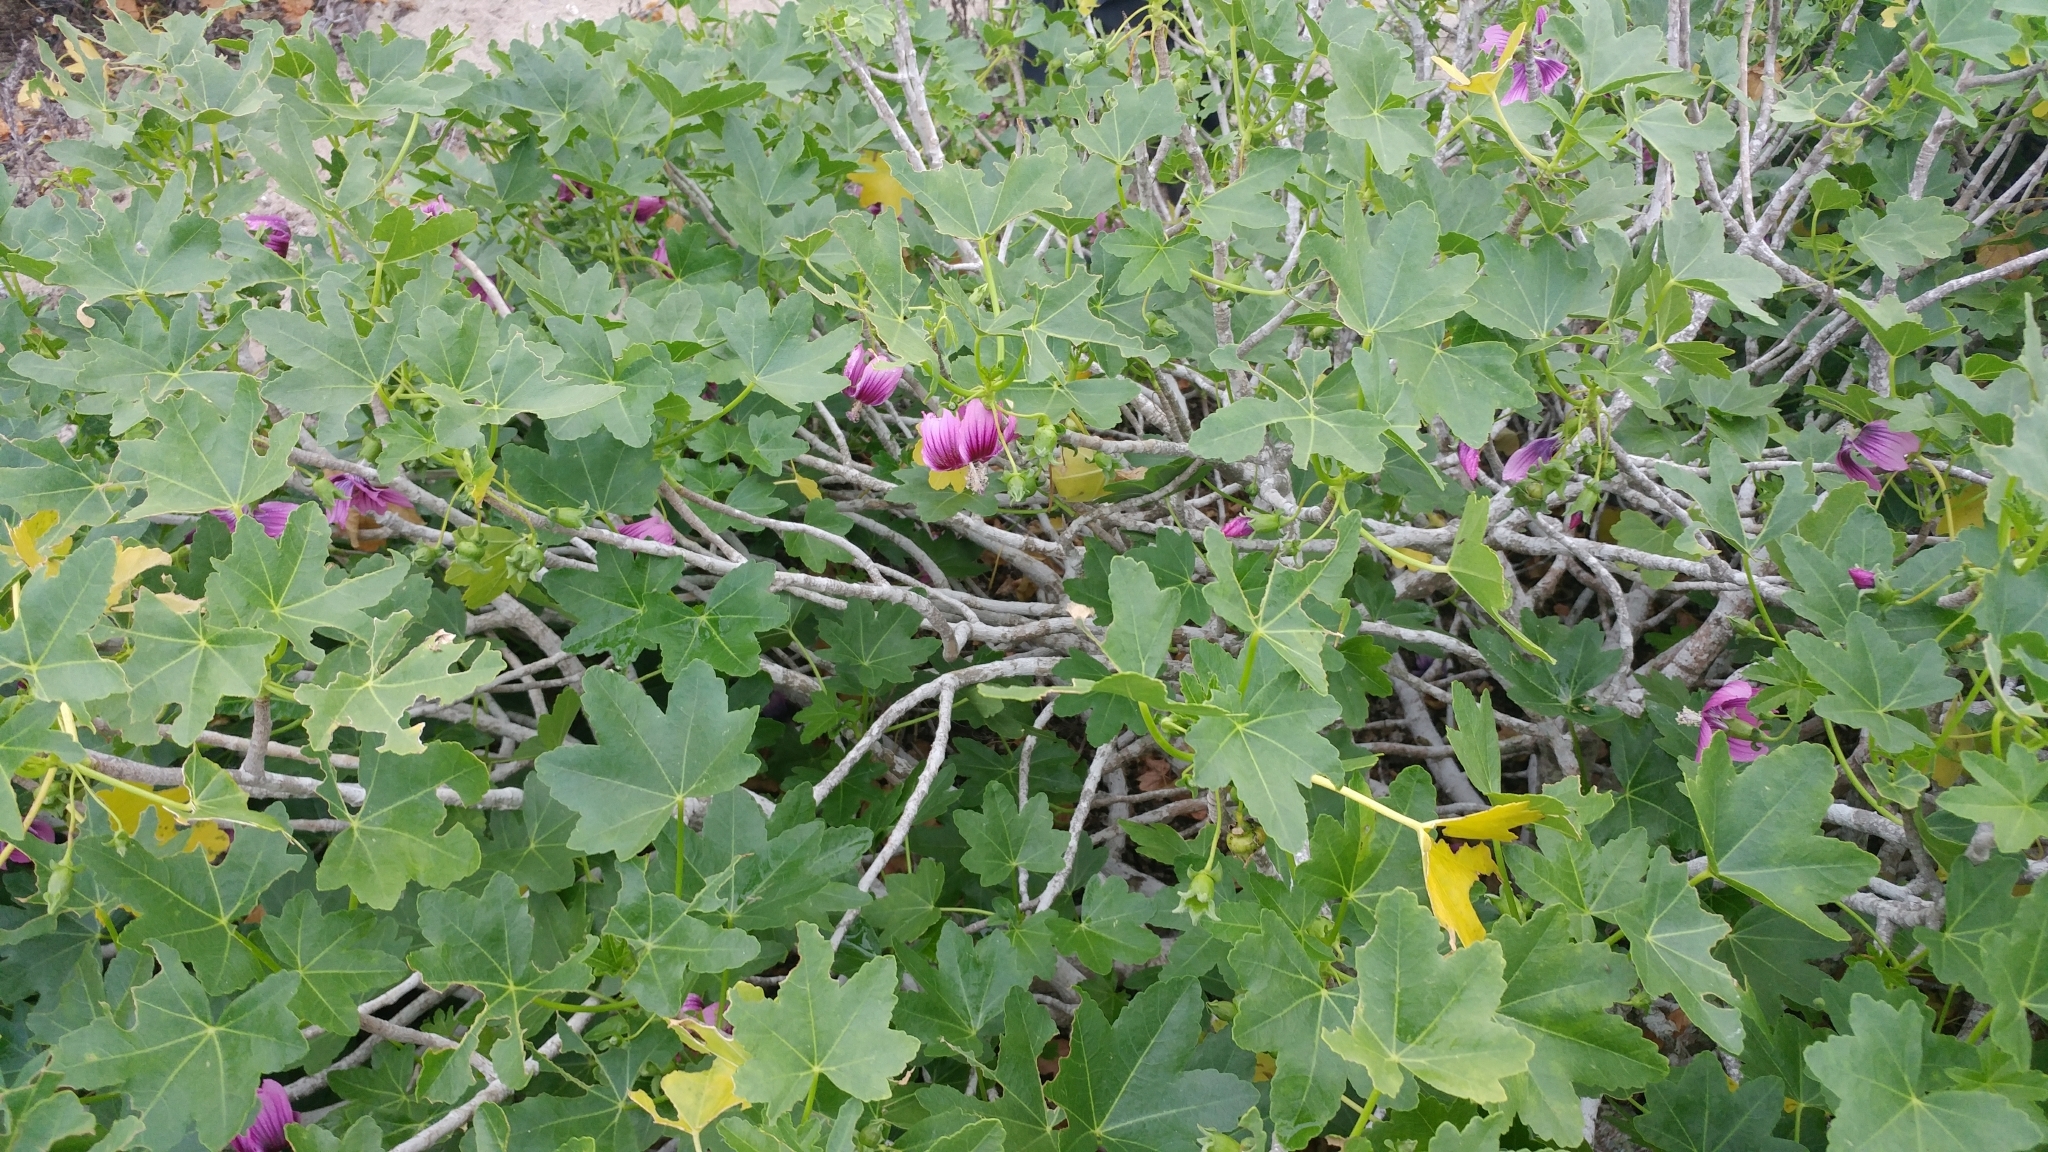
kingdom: Plantae
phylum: Tracheophyta
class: Magnoliopsida
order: Malvales
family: Malvaceae
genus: Malva
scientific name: Malva assurgentiflora
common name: Island mallow
